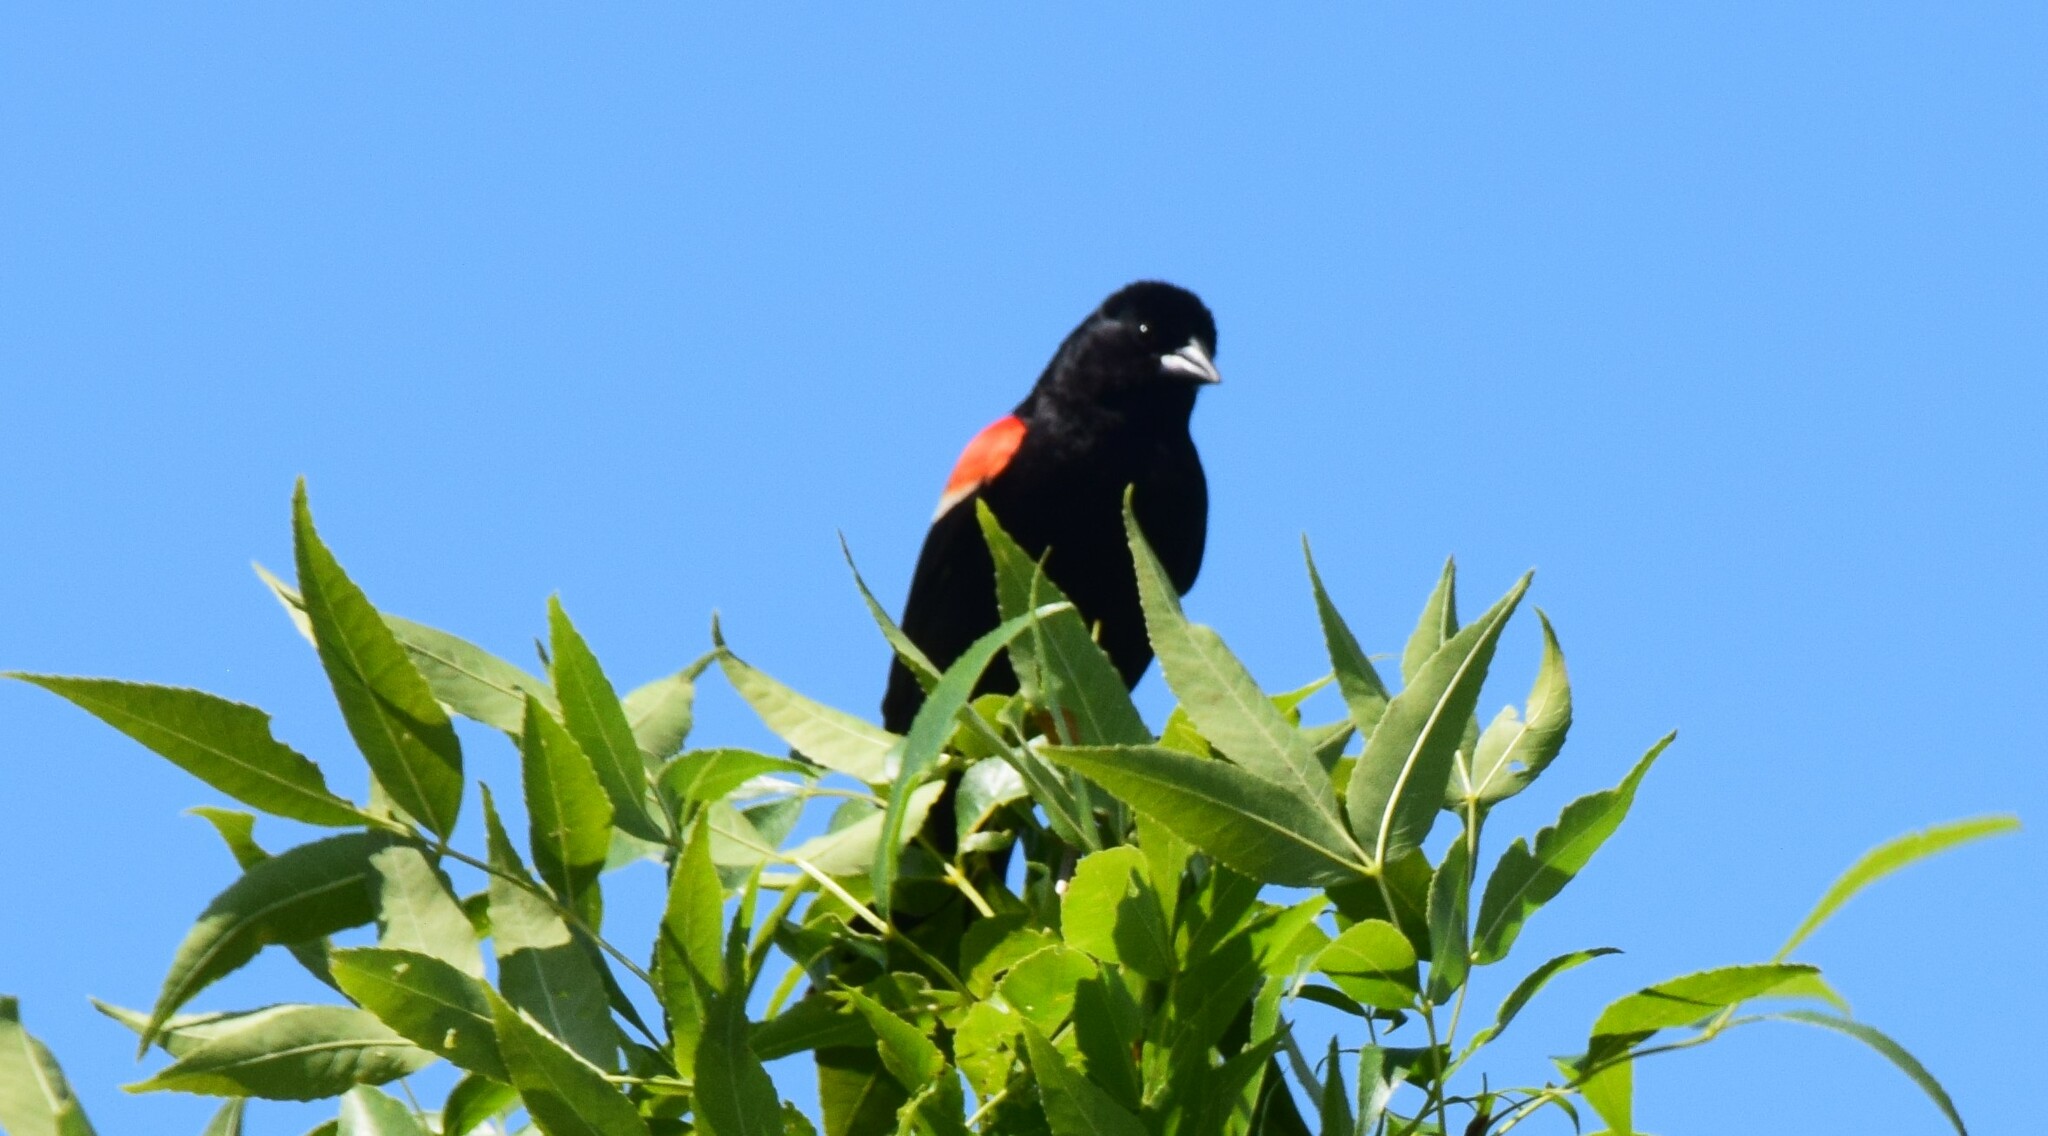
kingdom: Animalia
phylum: Chordata
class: Aves
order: Passeriformes
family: Icteridae
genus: Agelaius
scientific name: Agelaius phoeniceus
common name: Red-winged blackbird
